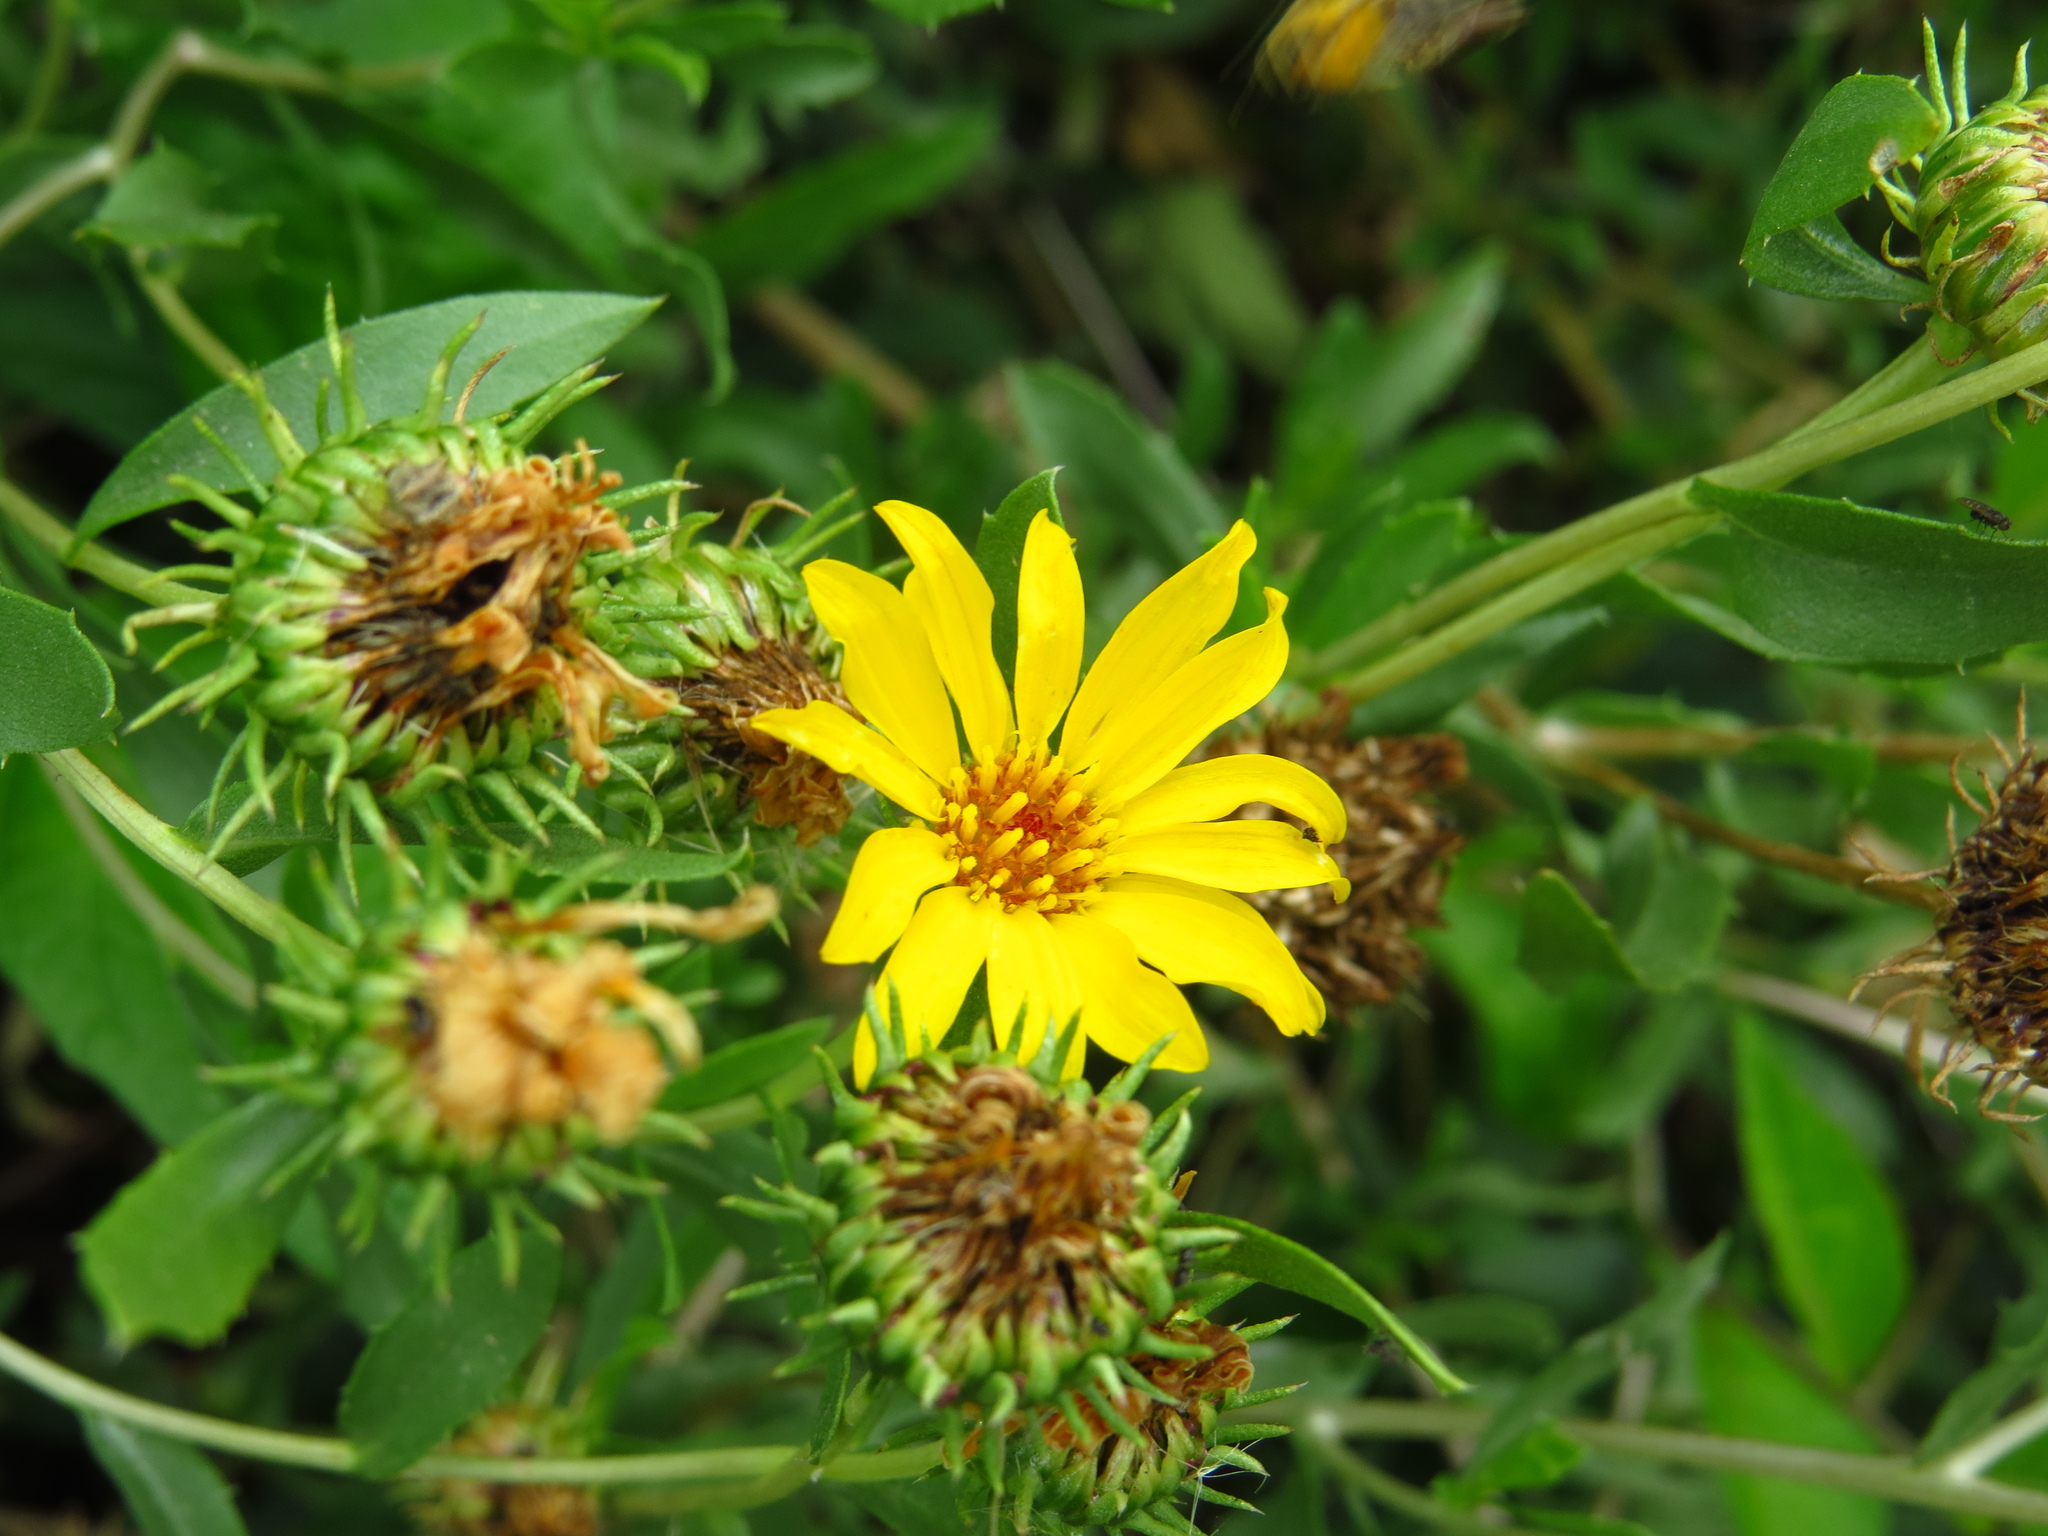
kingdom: Plantae
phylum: Tracheophyta
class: Magnoliopsida
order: Asterales
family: Asteraceae
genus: Grindelia
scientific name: Grindelia pulchella
